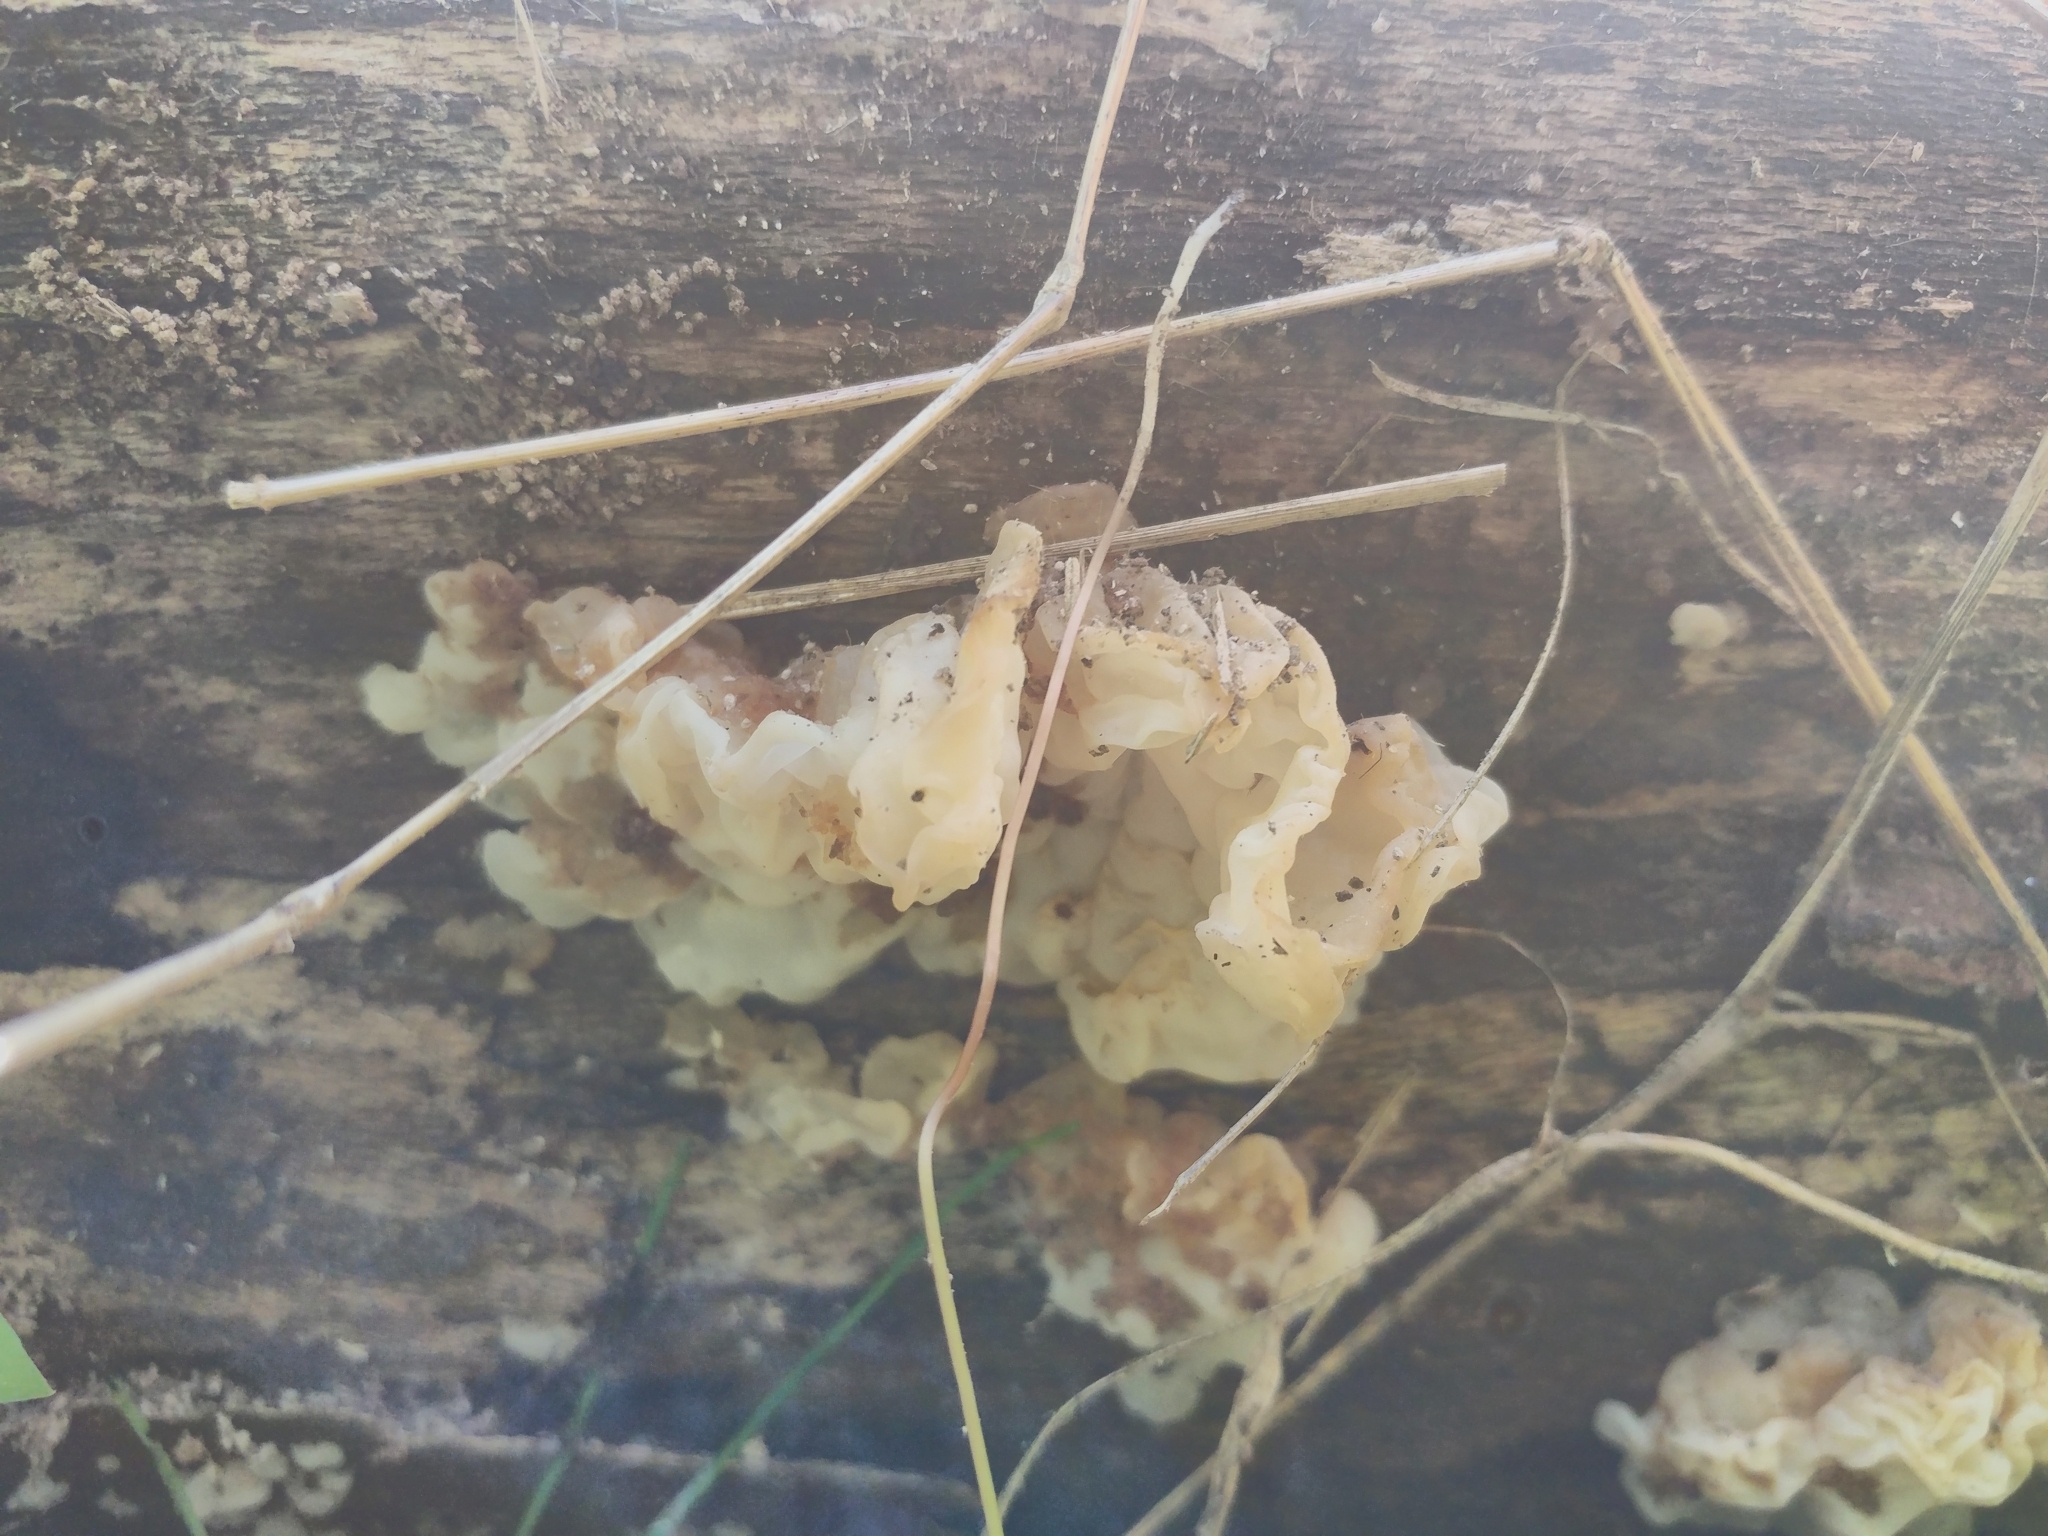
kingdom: Fungi
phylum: Basidiomycota
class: Agaricomycetes
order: Auriculariales
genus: Ductifera
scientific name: Ductifera pululahuana
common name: White jelly fungus
